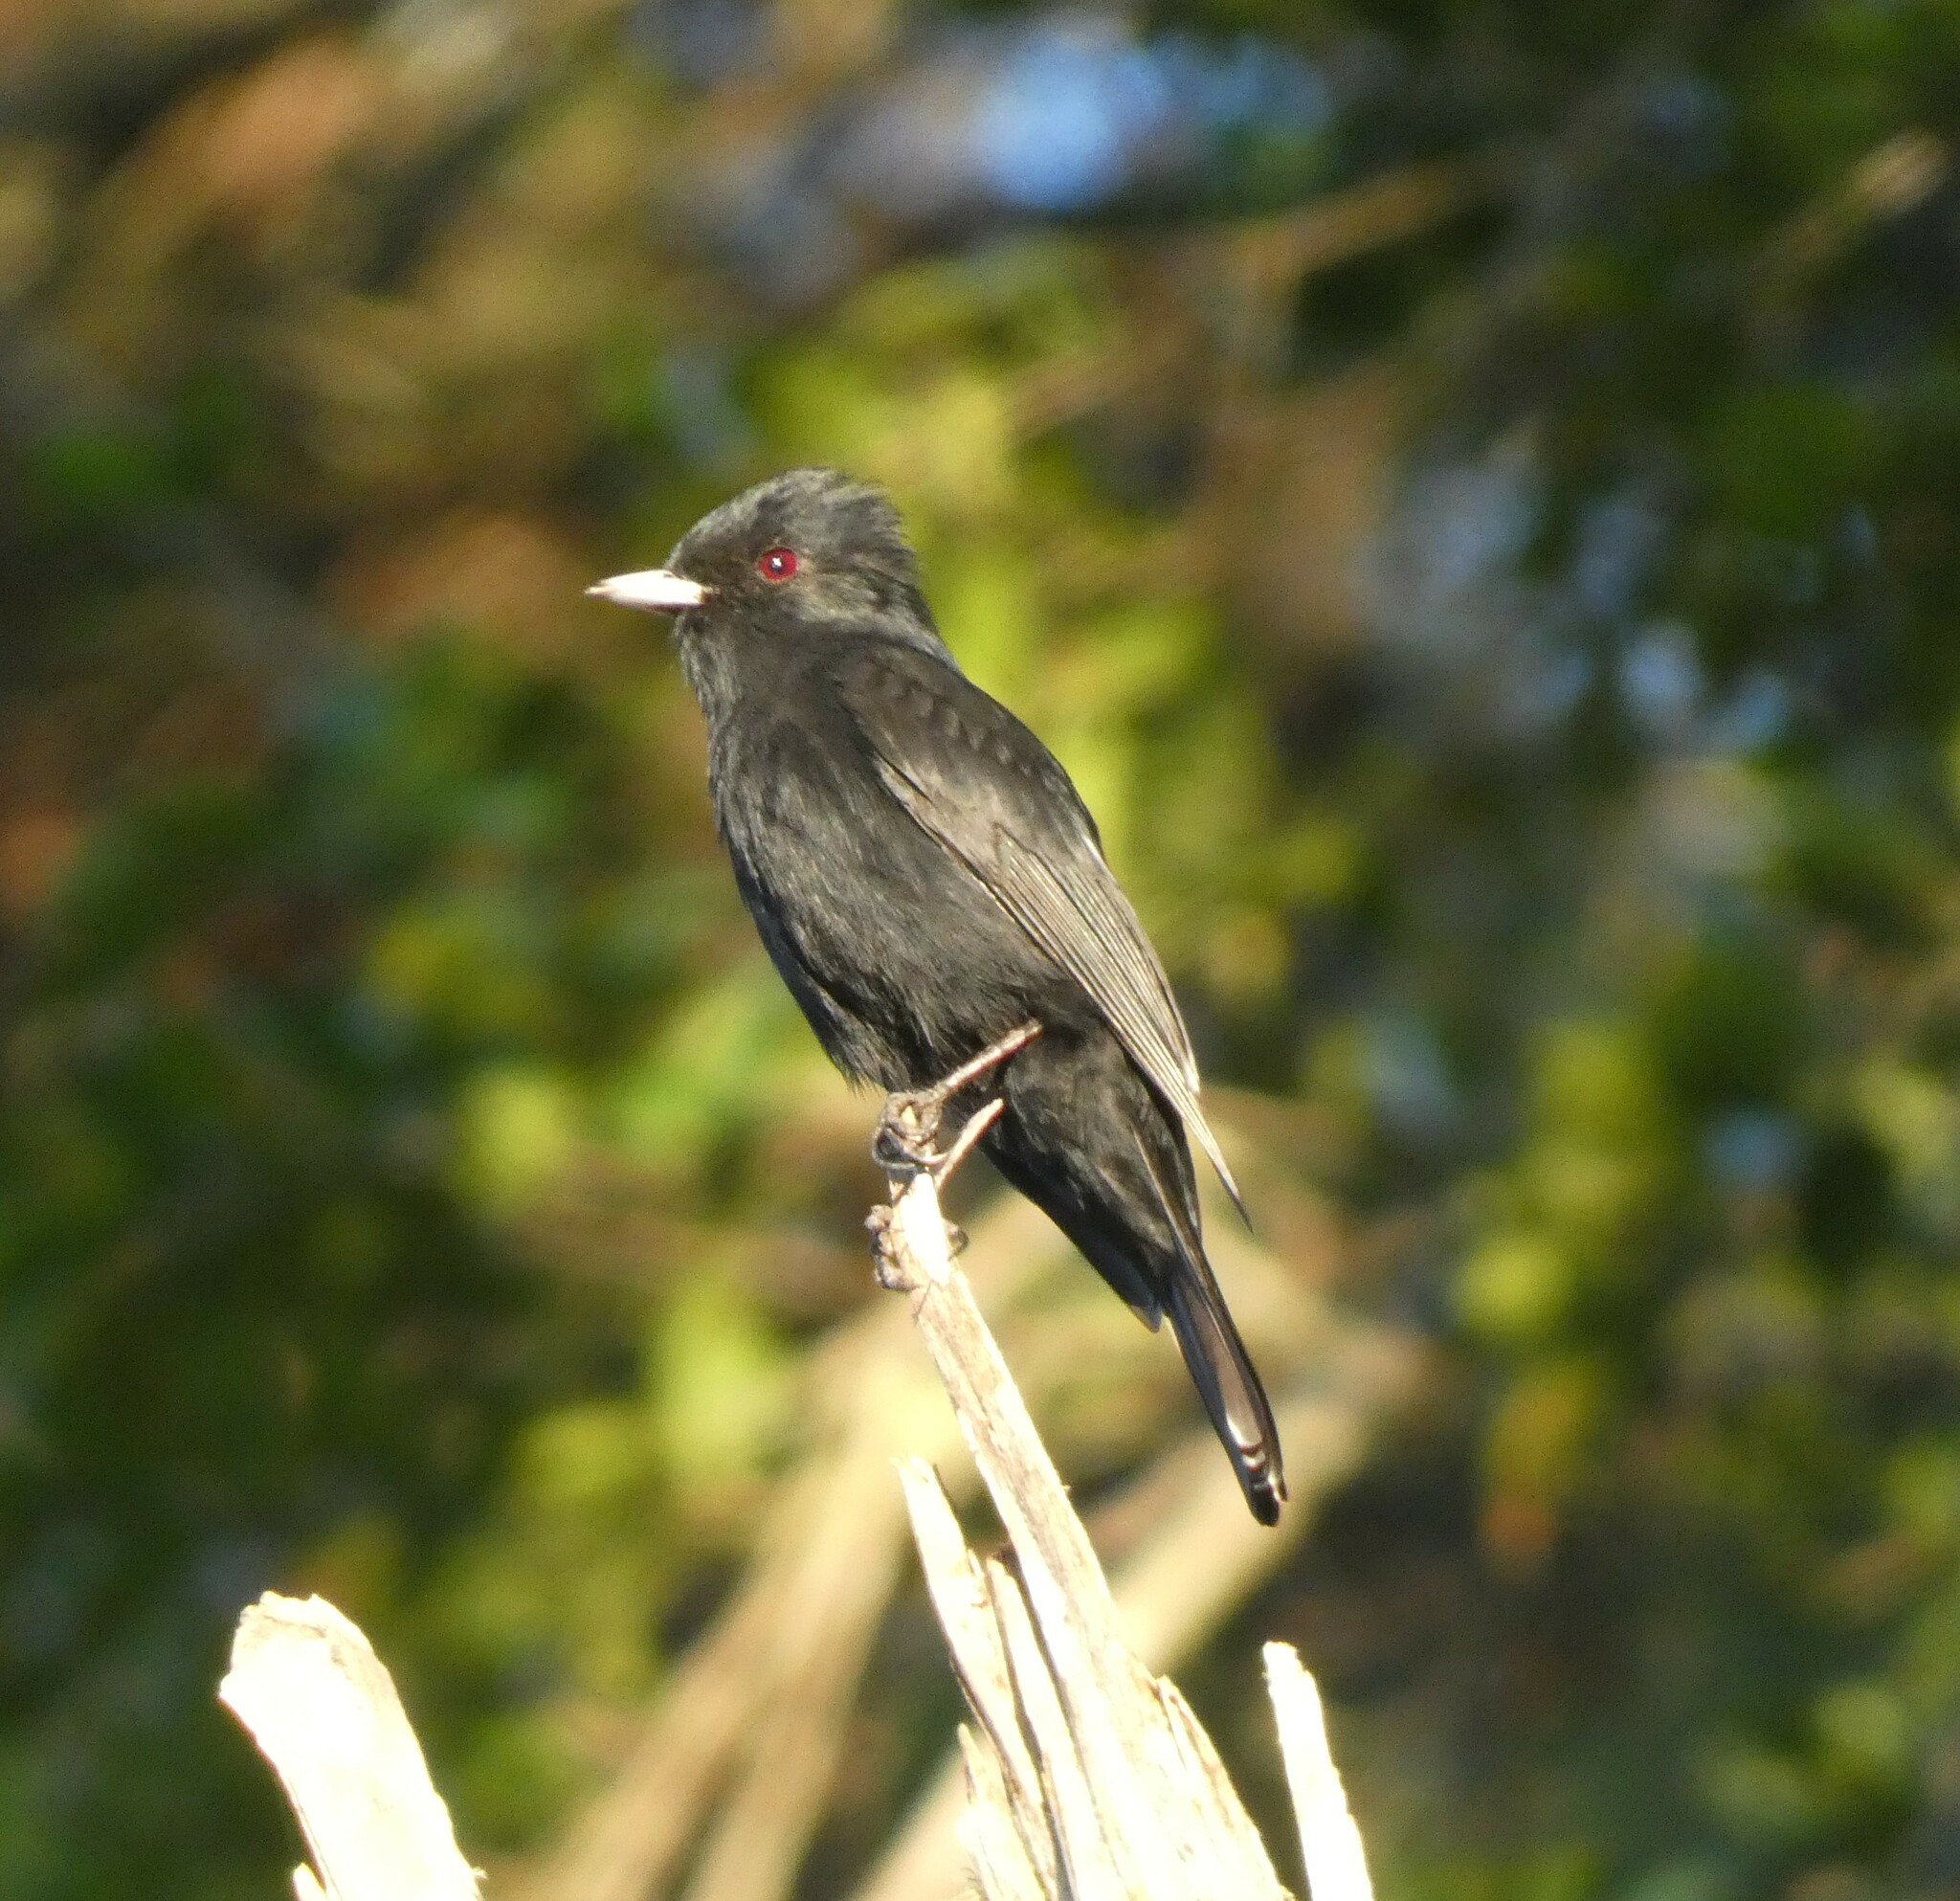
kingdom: Animalia
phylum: Chordata
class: Aves
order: Passeriformes
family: Tyrannidae
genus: Knipolegus
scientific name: Knipolegus nigerrimus
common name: Velvety black tyrant
